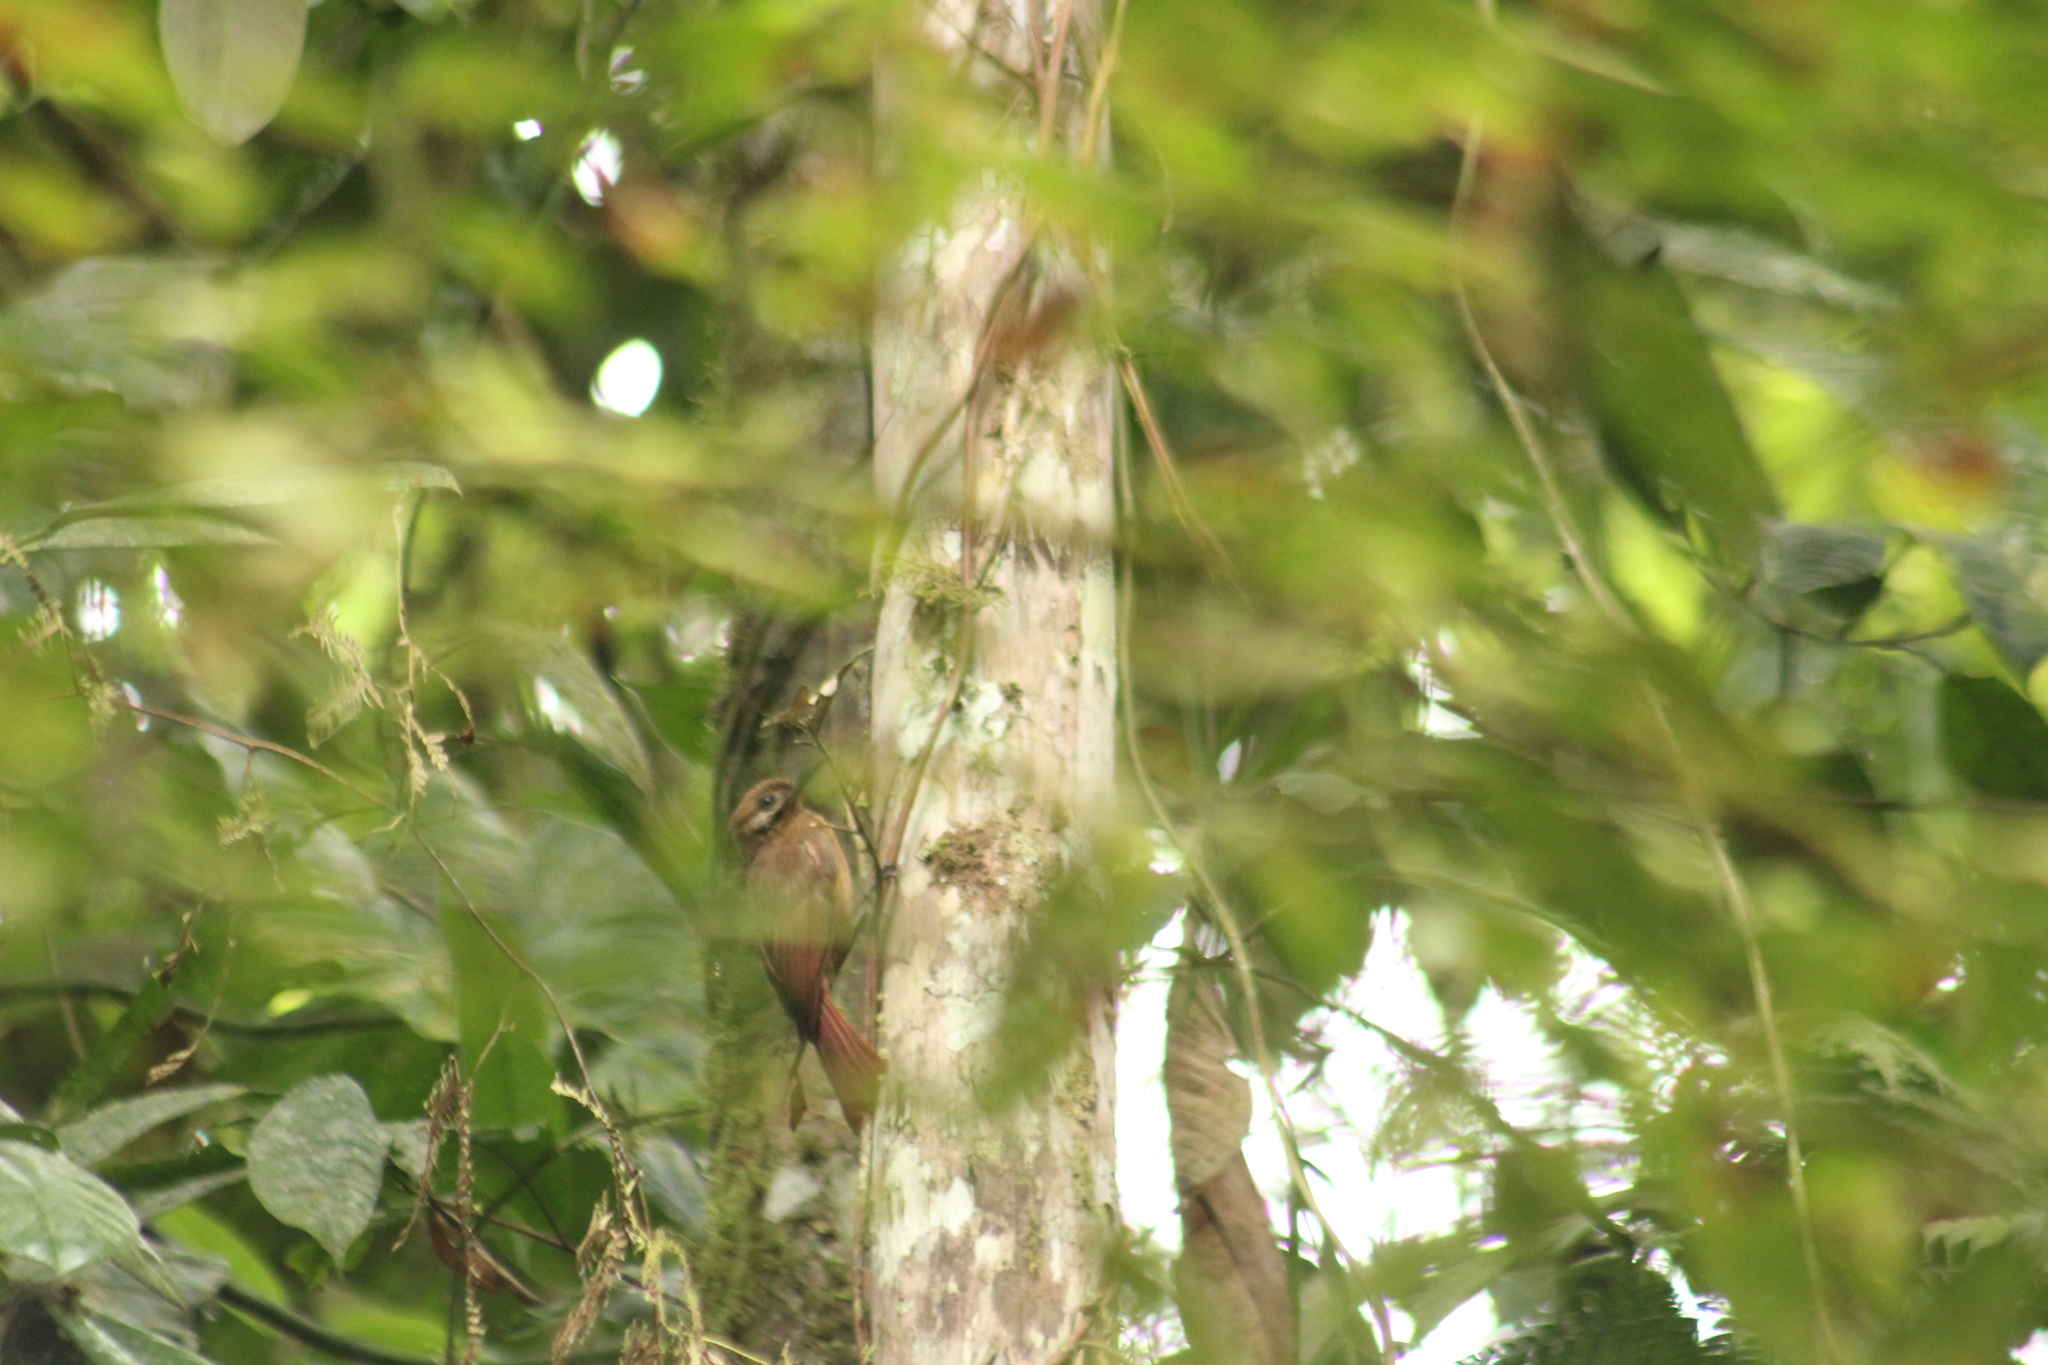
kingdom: Animalia
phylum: Chordata
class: Aves
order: Passeriformes
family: Furnariidae
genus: Dendrocincla
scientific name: Dendrocincla fuliginosa
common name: Plain-brown woodcreeper
